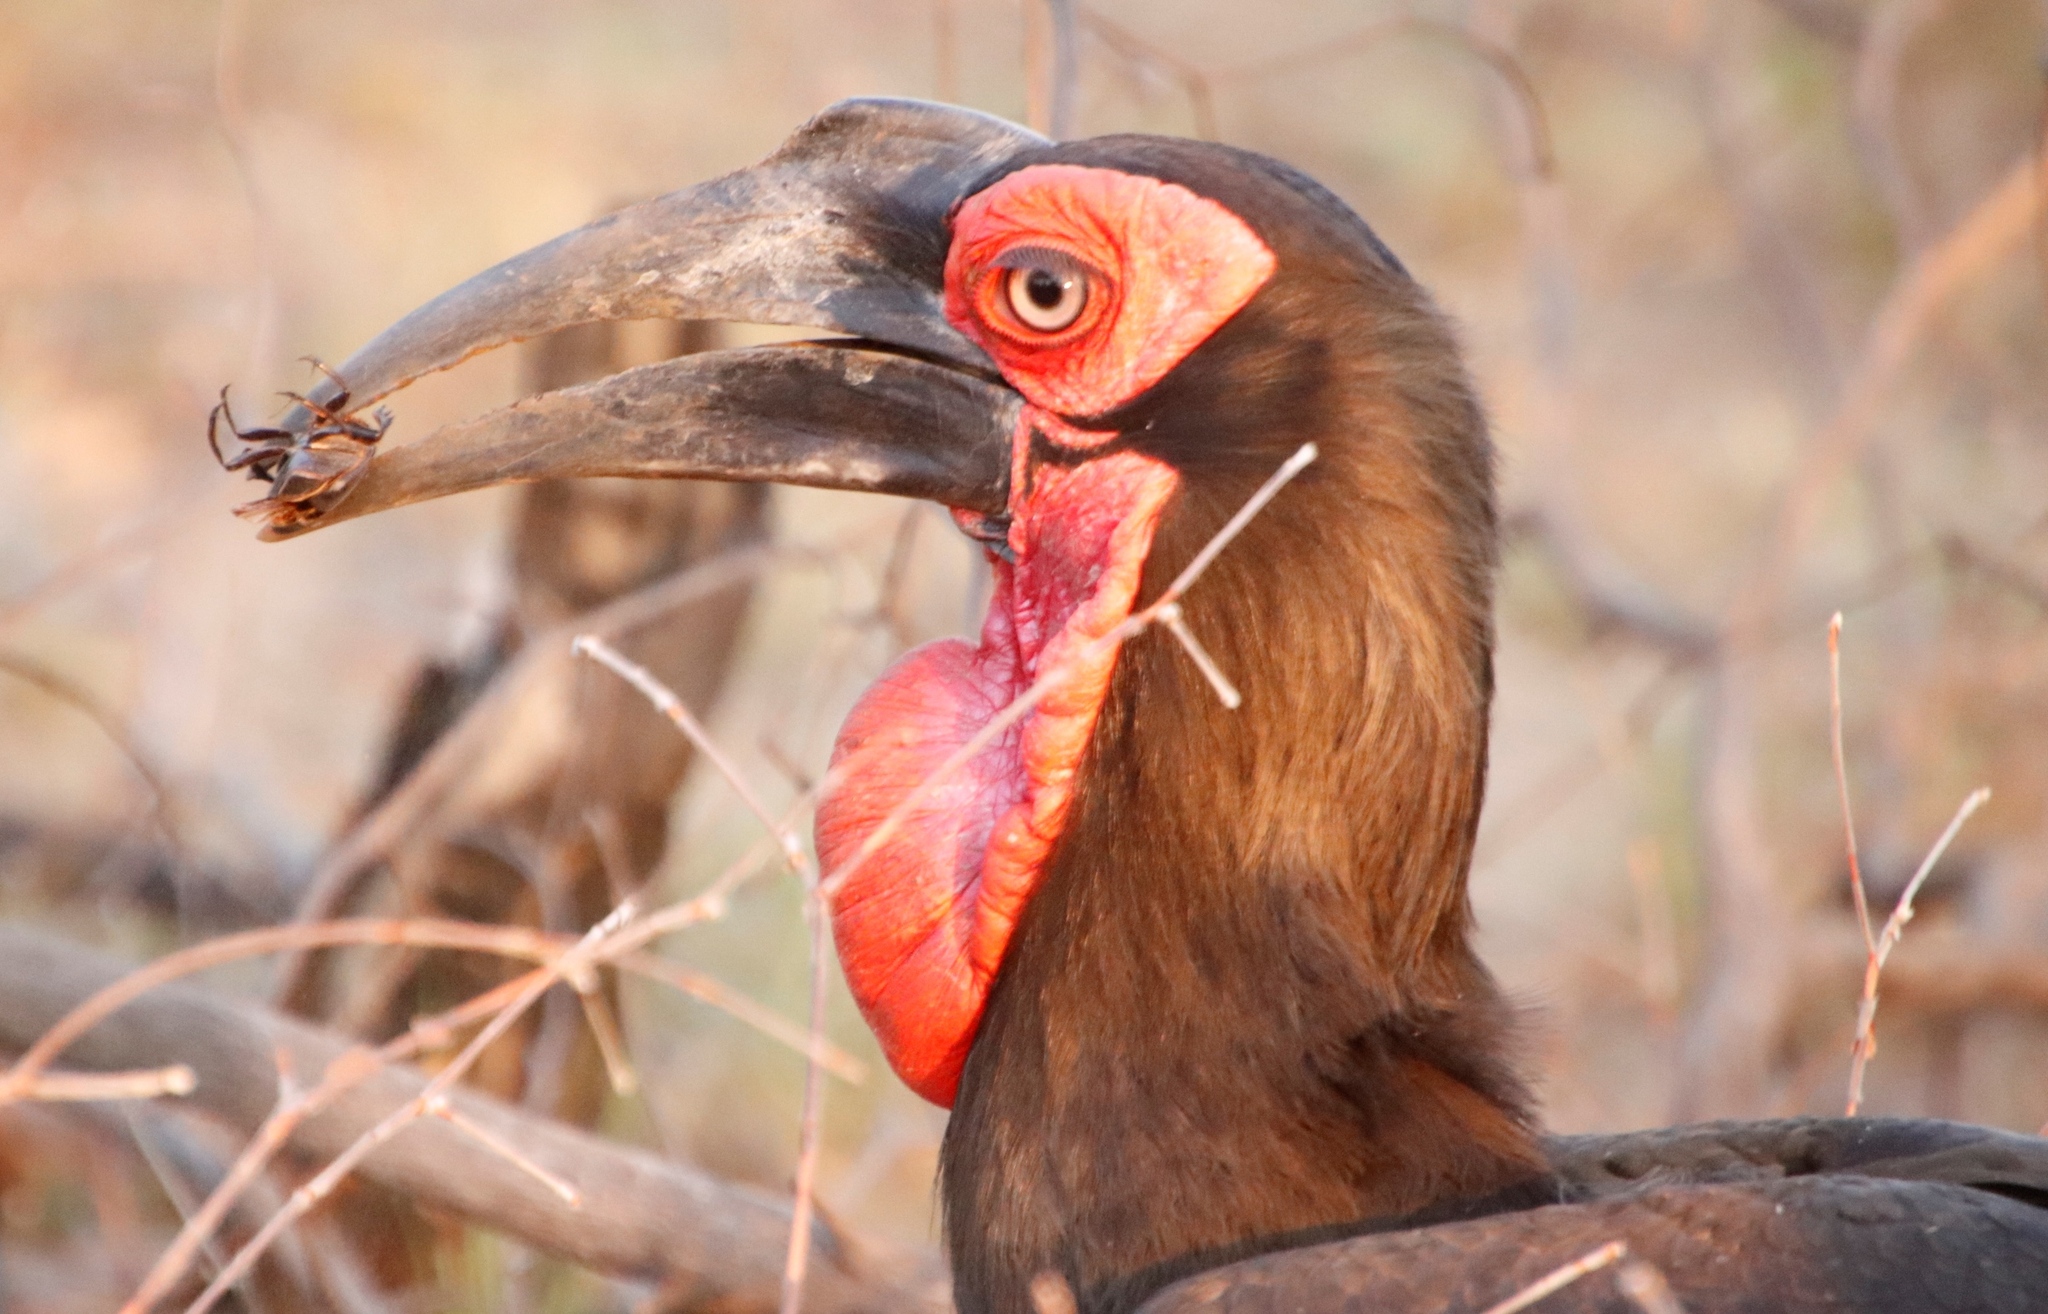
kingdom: Animalia
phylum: Chordata
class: Aves
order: Bucerotiformes
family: Bucorvidae
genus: Bucorvus
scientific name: Bucorvus leadbeateri
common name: Southern ground-hornbill
